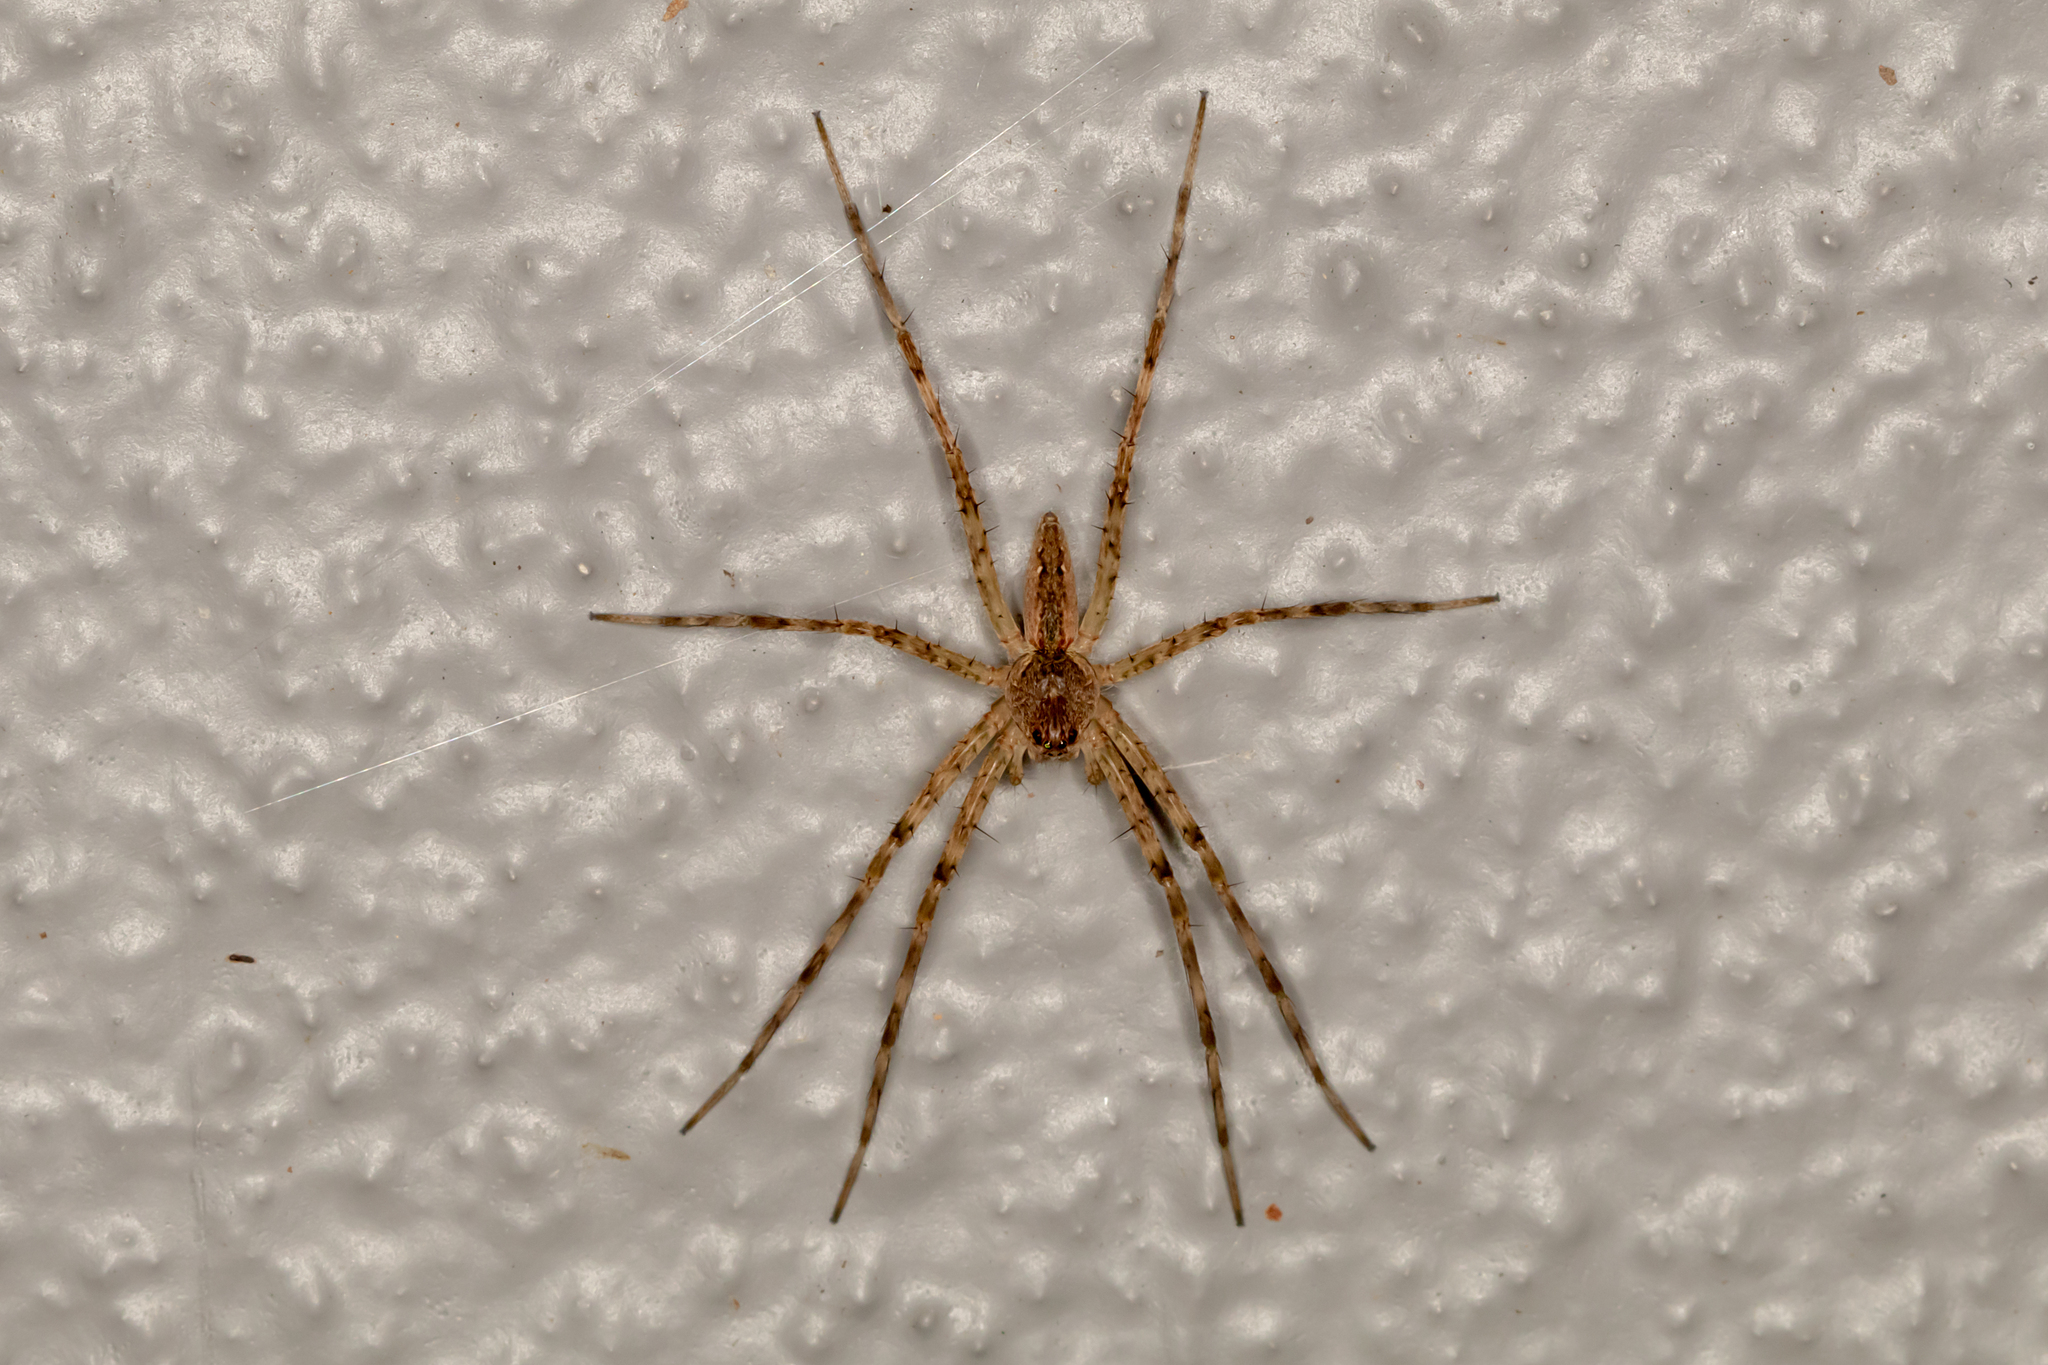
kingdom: Animalia
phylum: Arthropoda
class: Arachnida
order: Araneae
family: Pisauridae
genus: Megadolomedes
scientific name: Megadolomedes trux
